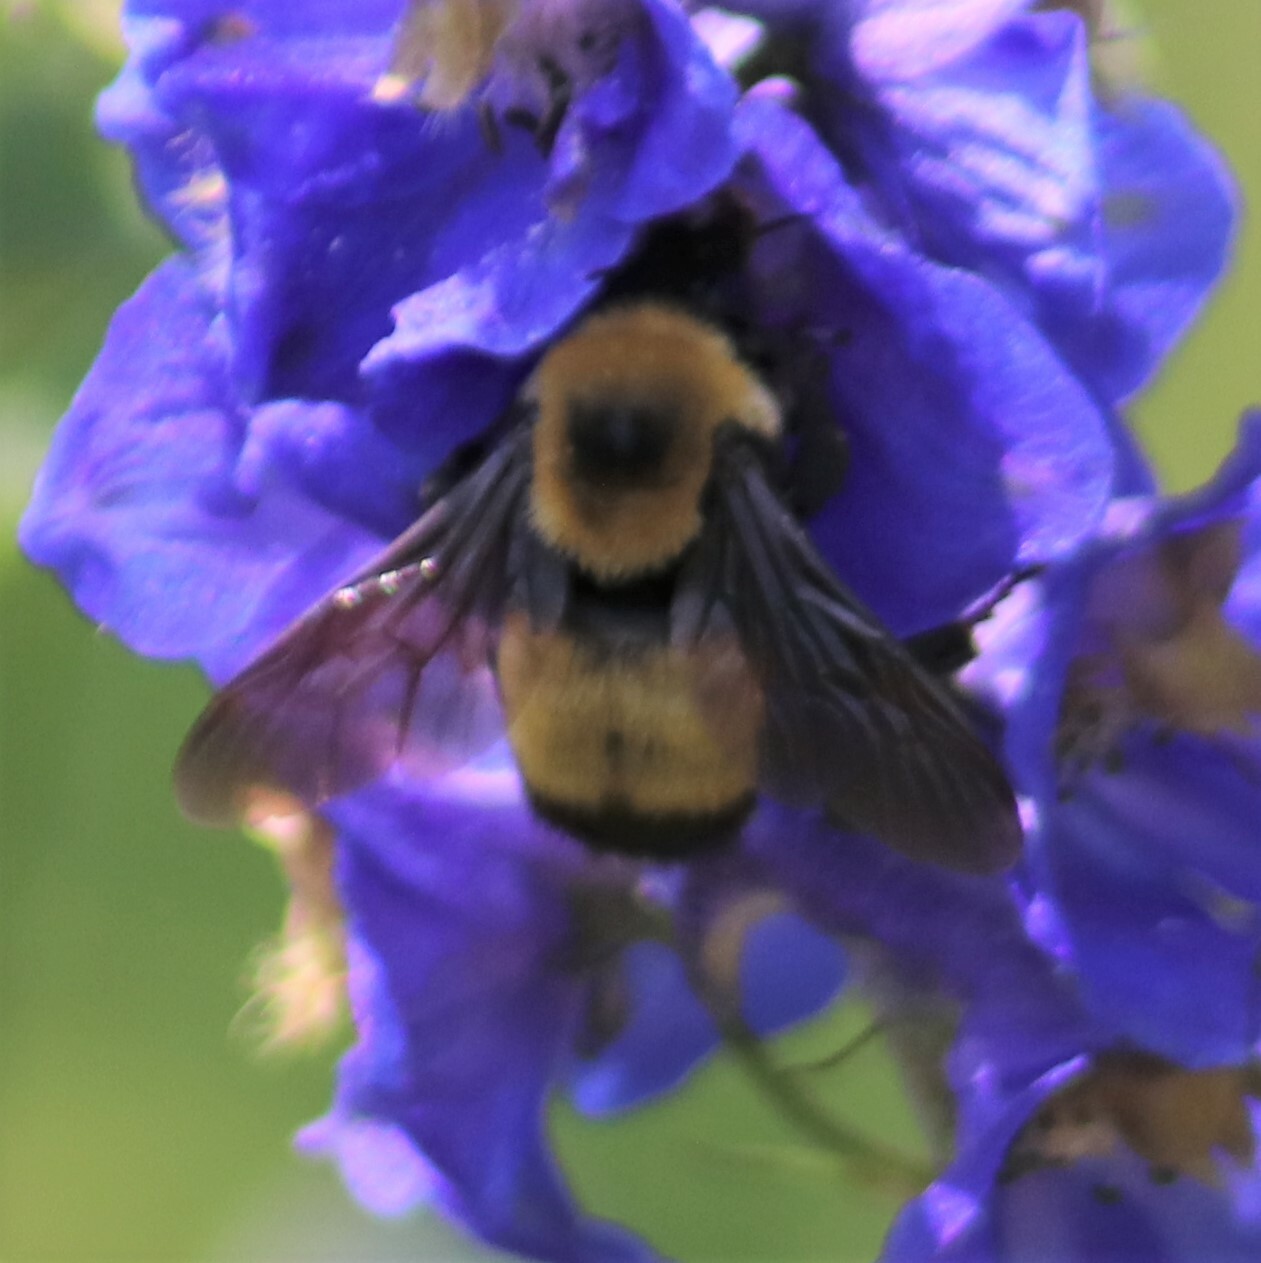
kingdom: Animalia
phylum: Arthropoda
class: Insecta
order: Hymenoptera
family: Apidae
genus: Bombus
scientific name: Bombus nevadensis
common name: Nevada bumble bee
